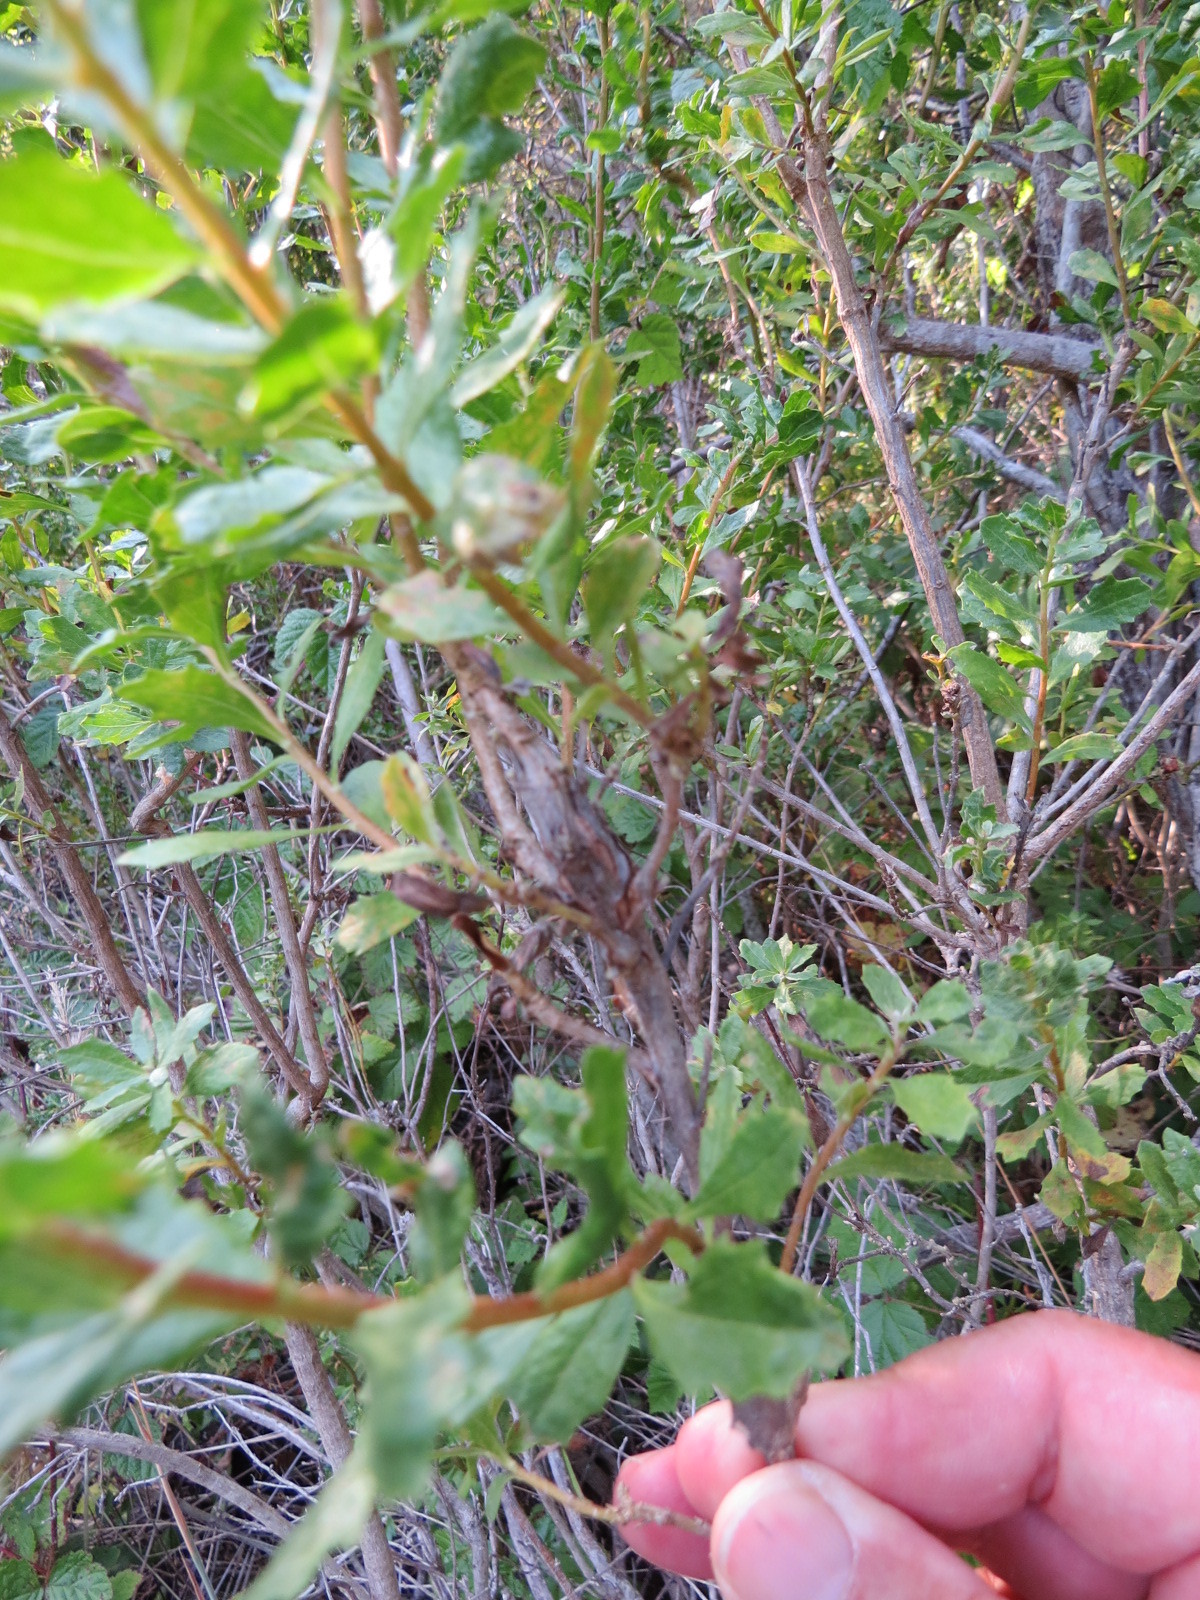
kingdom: Animalia
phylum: Arthropoda
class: Insecta
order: Lepidoptera
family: Gelechiidae
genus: Gnorimoschema
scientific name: Gnorimoschema baccharisella
